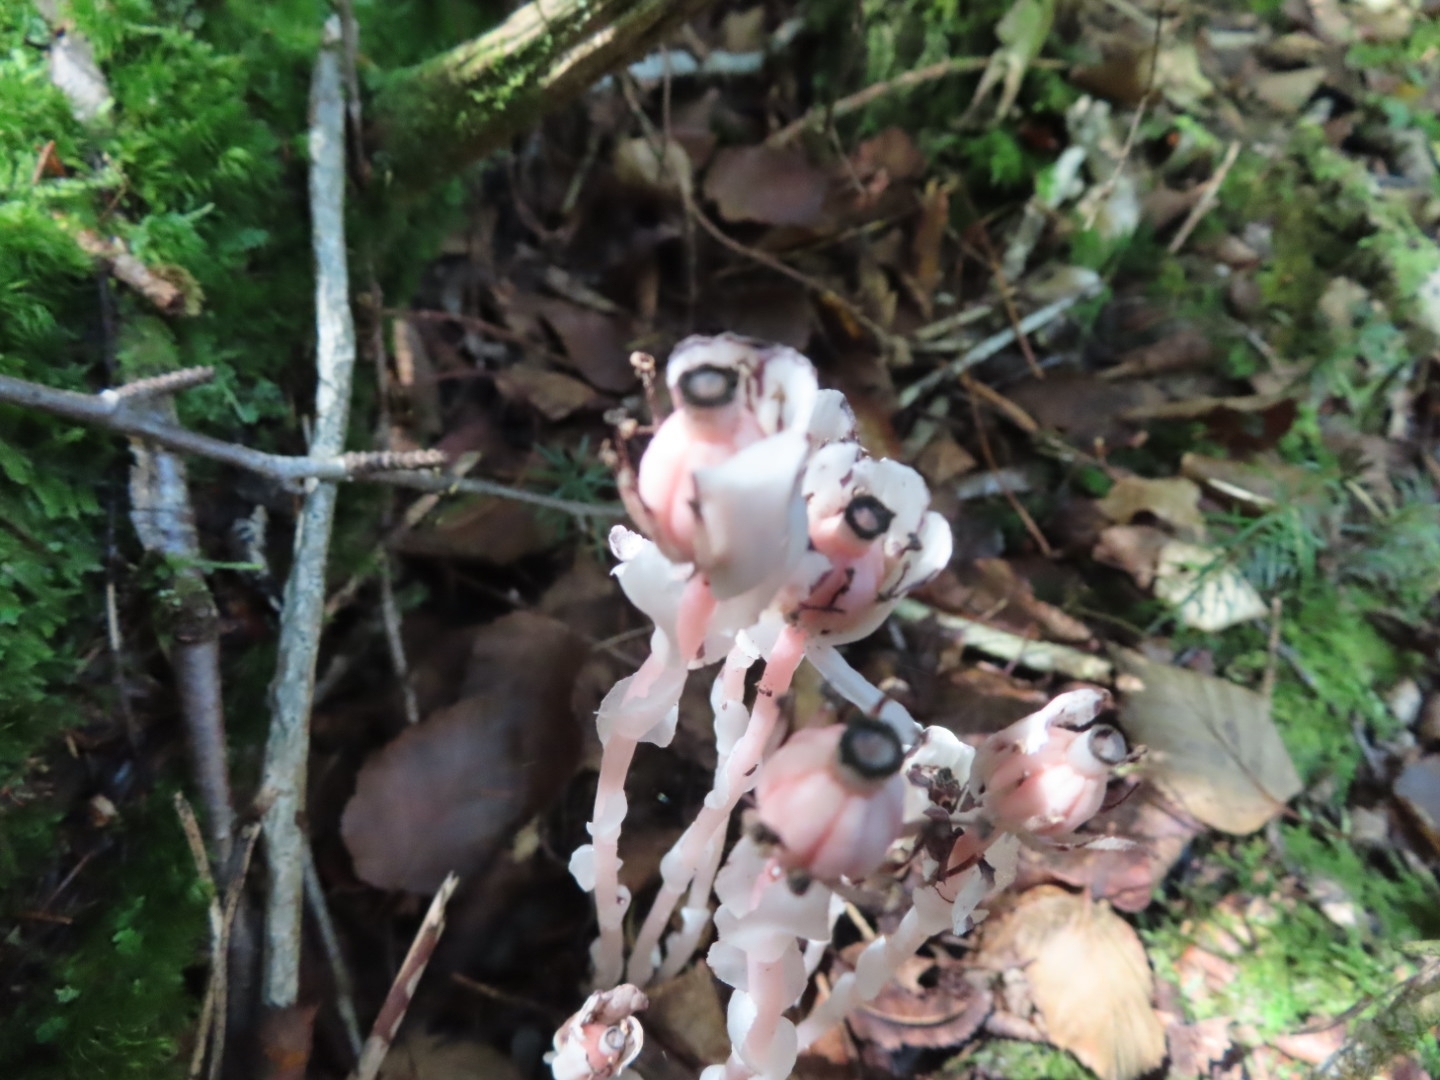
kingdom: Plantae
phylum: Tracheophyta
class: Magnoliopsida
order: Ericales
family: Ericaceae
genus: Monotropa
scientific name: Monotropa uniflora
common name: Convulsion root
